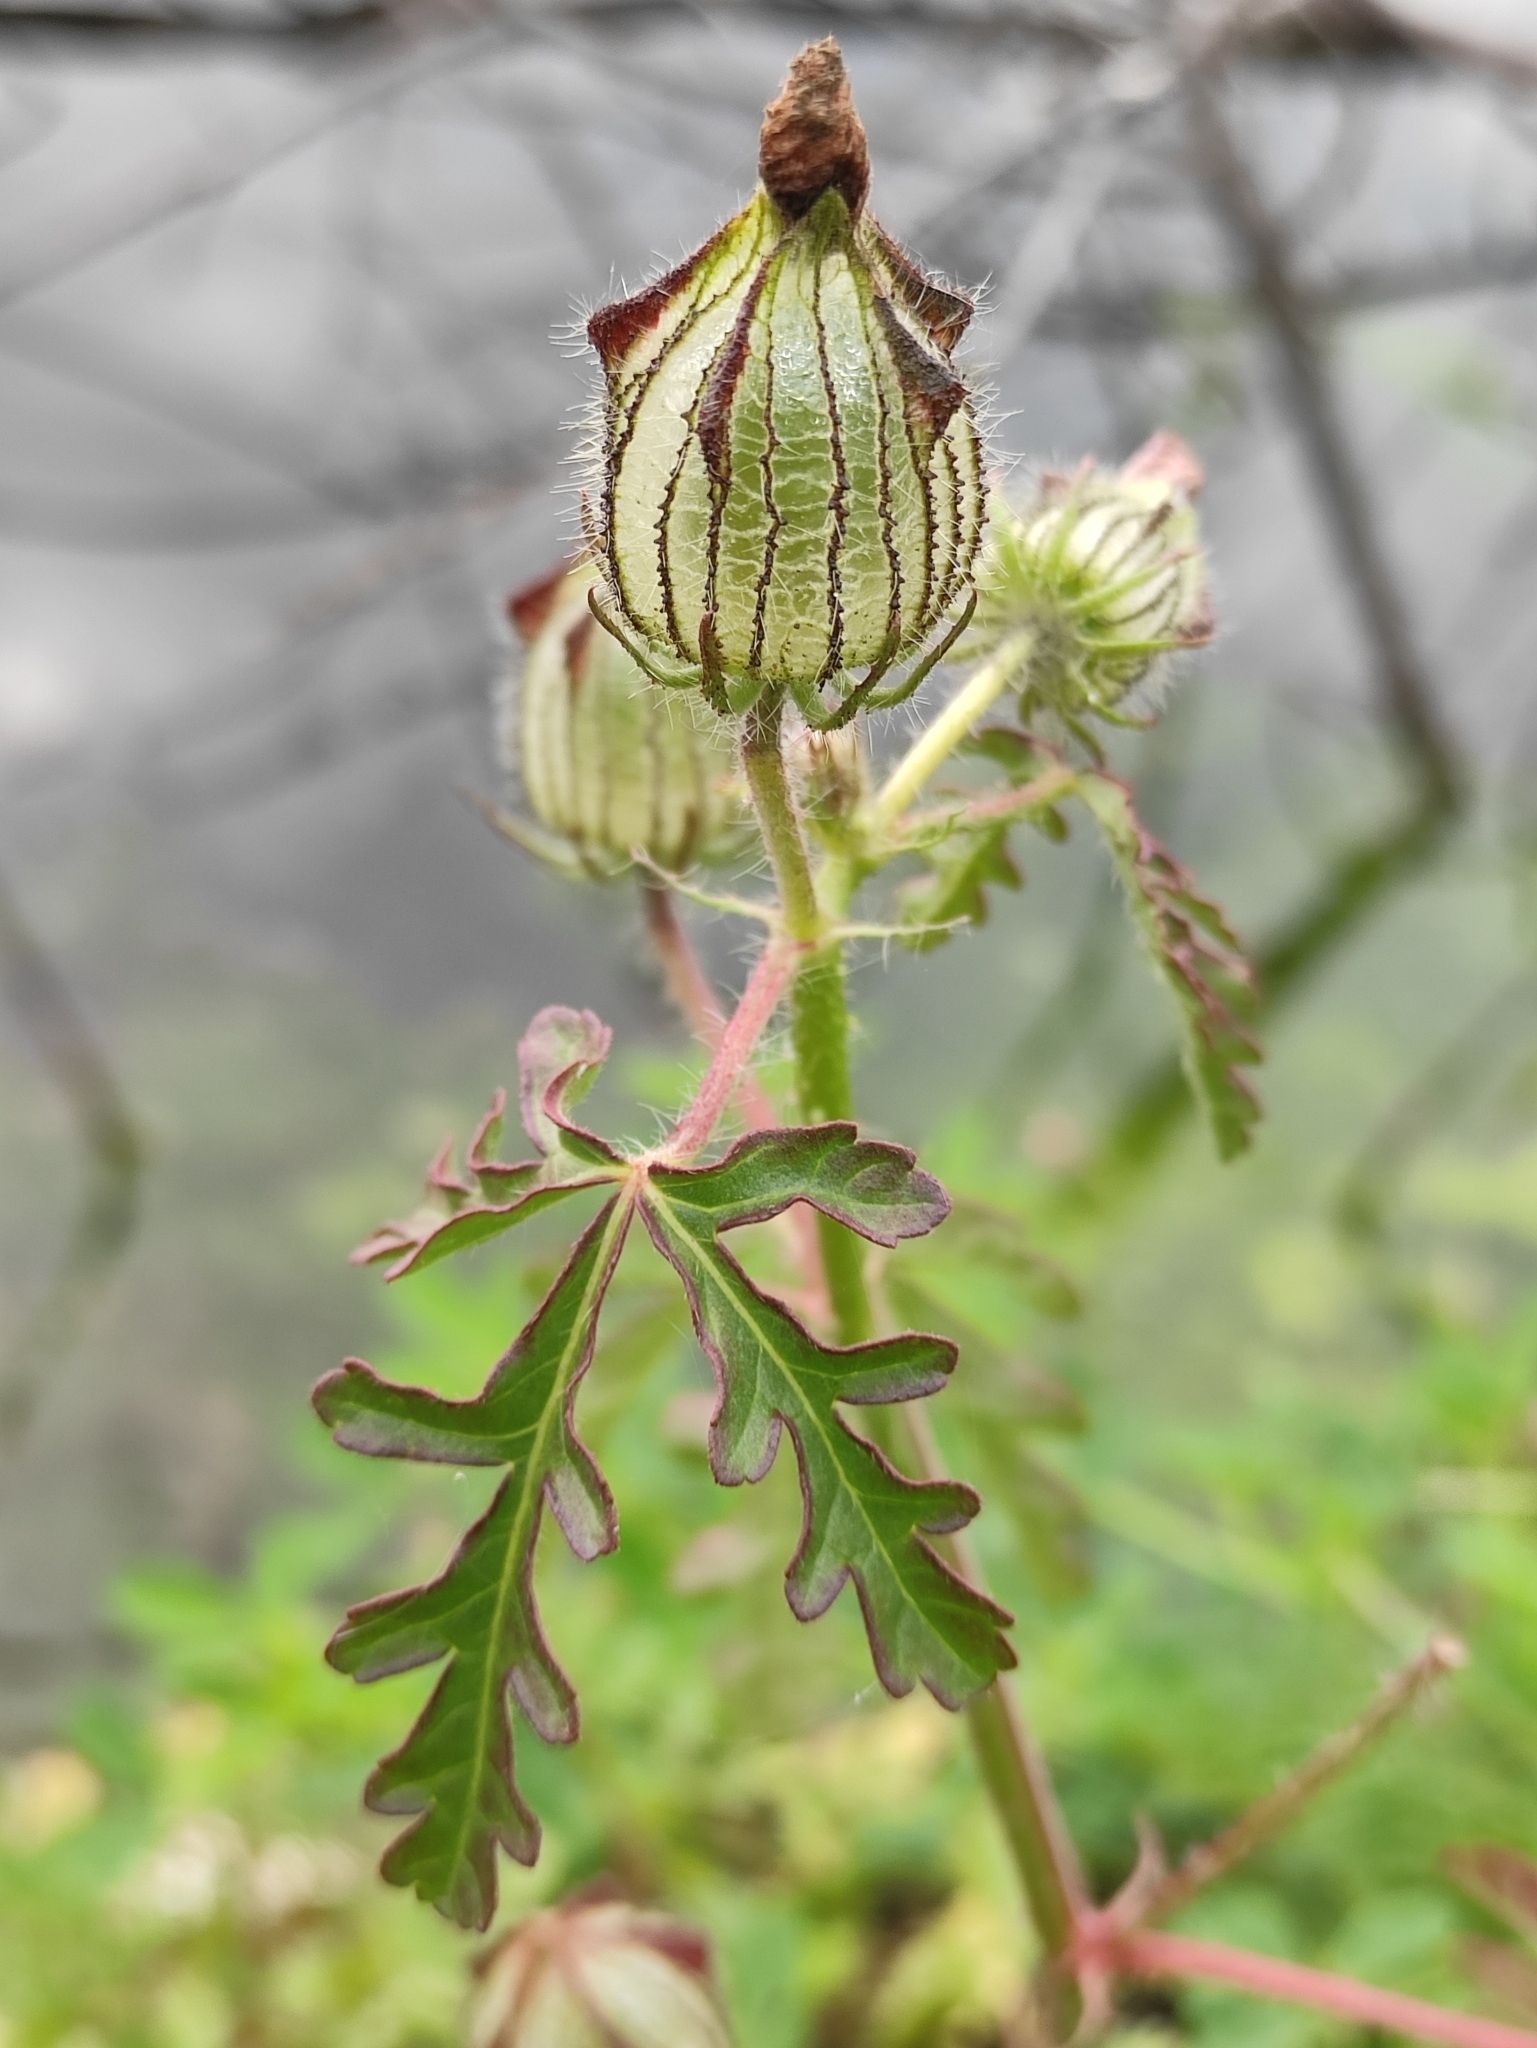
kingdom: Plantae
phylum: Tracheophyta
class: Magnoliopsida
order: Malvales
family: Malvaceae
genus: Hibiscus
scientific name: Hibiscus trionum
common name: Bladder ketmia
